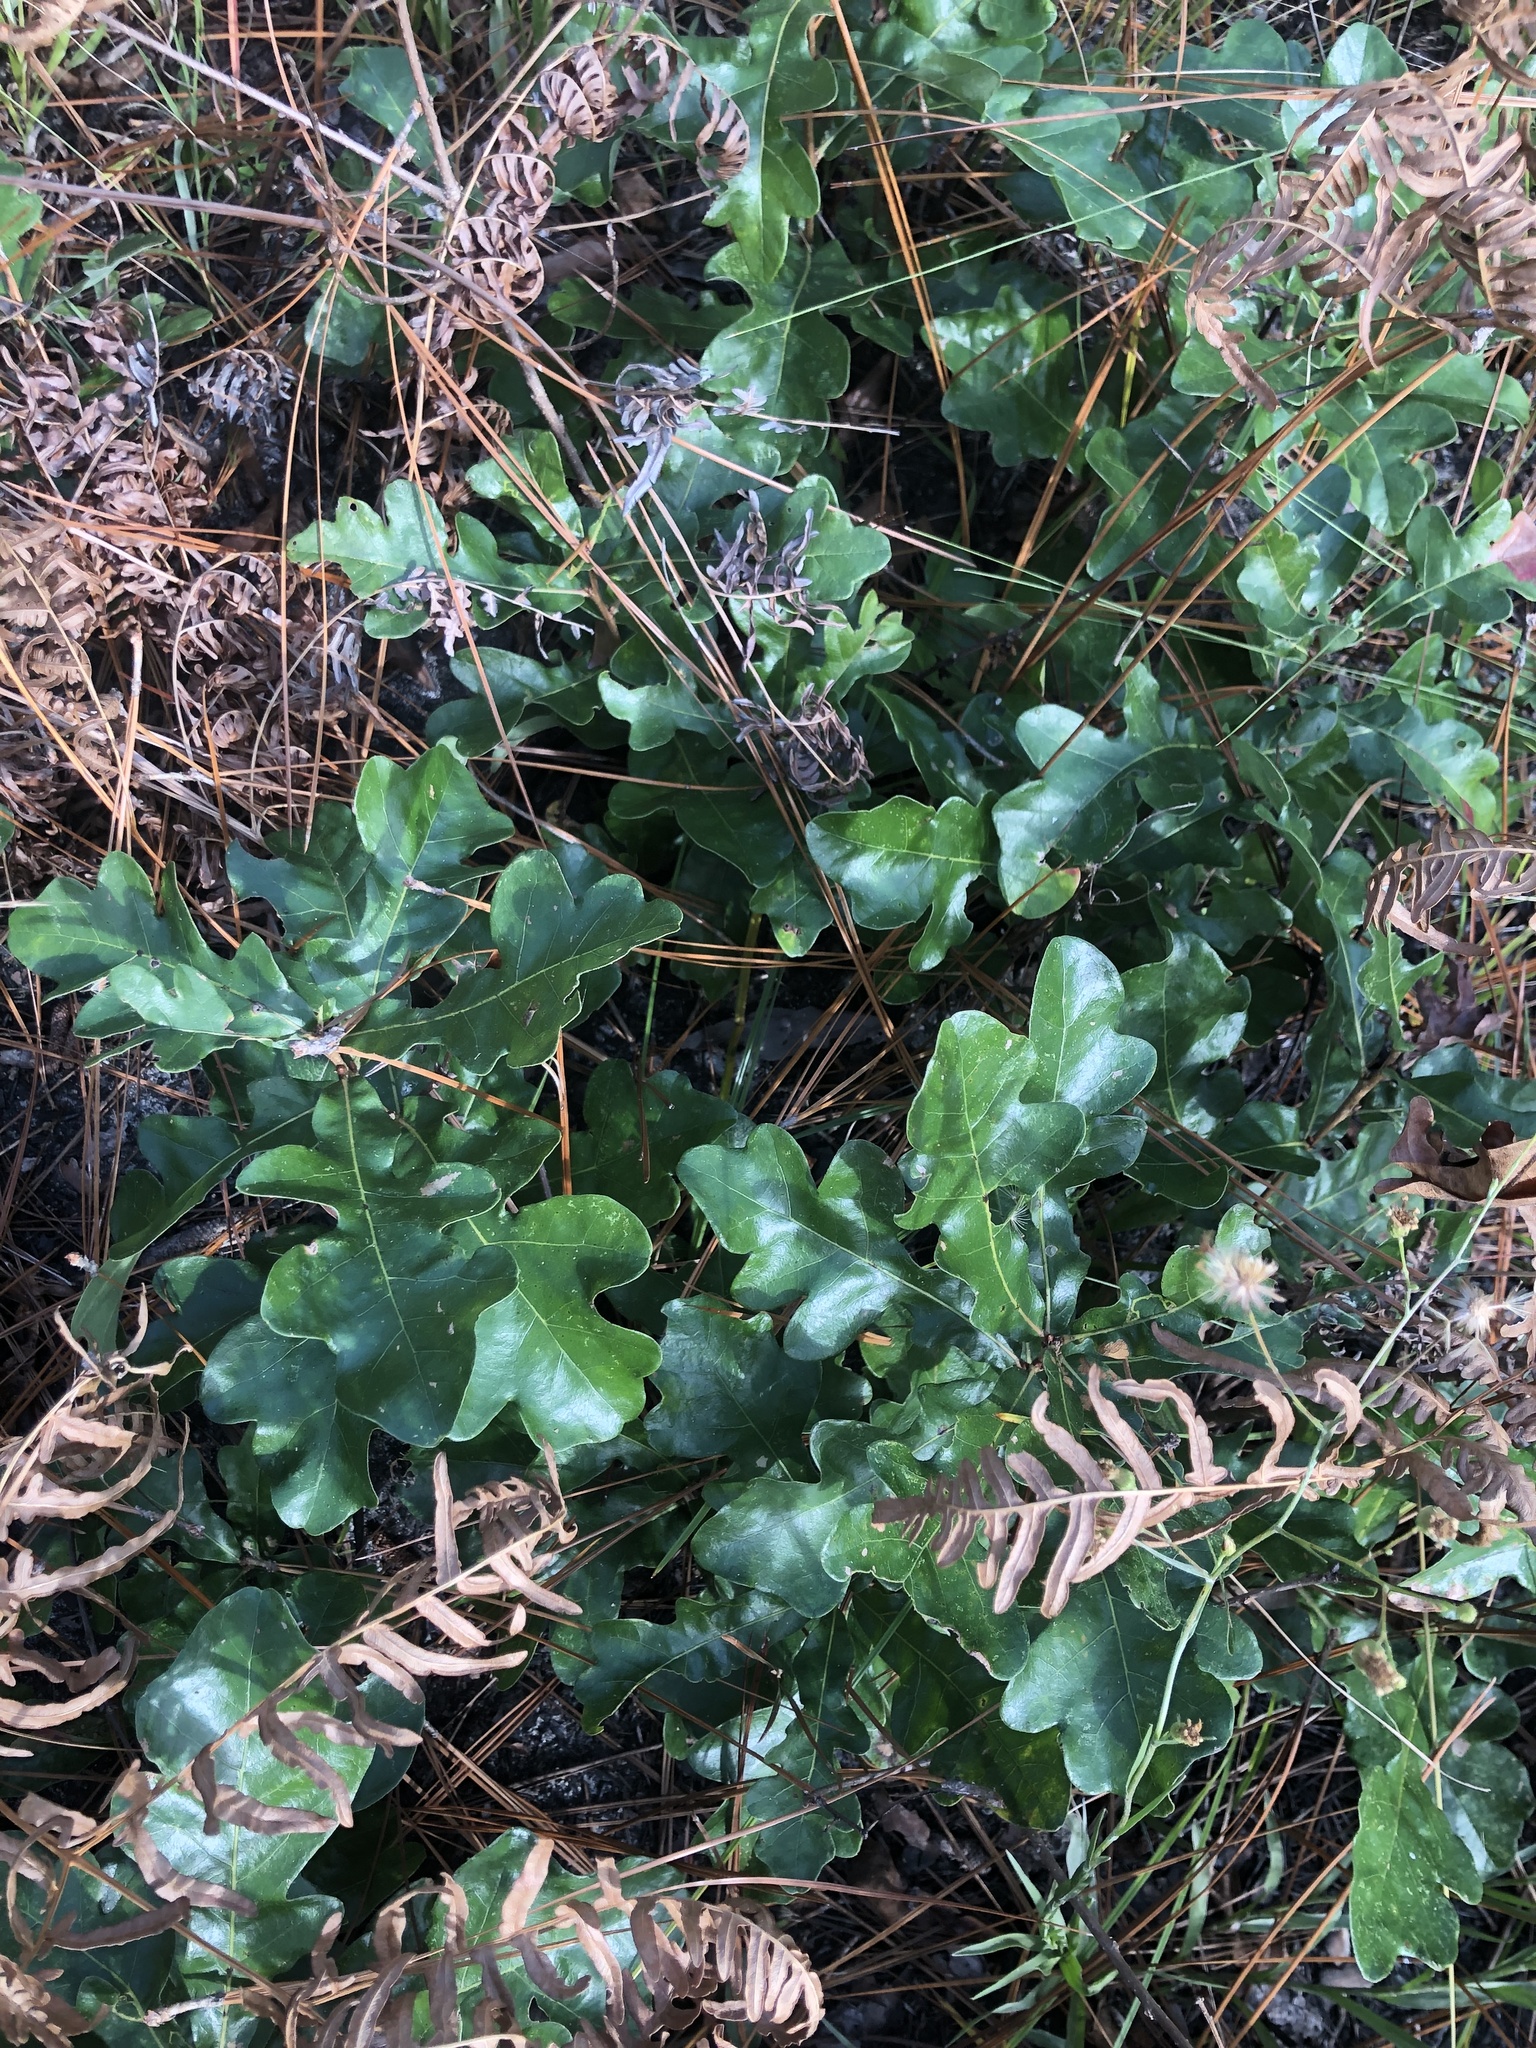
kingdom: Plantae
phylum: Tracheophyta
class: Magnoliopsida
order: Fagales
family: Fagaceae
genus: Quercus
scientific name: Quercus margaretiae
